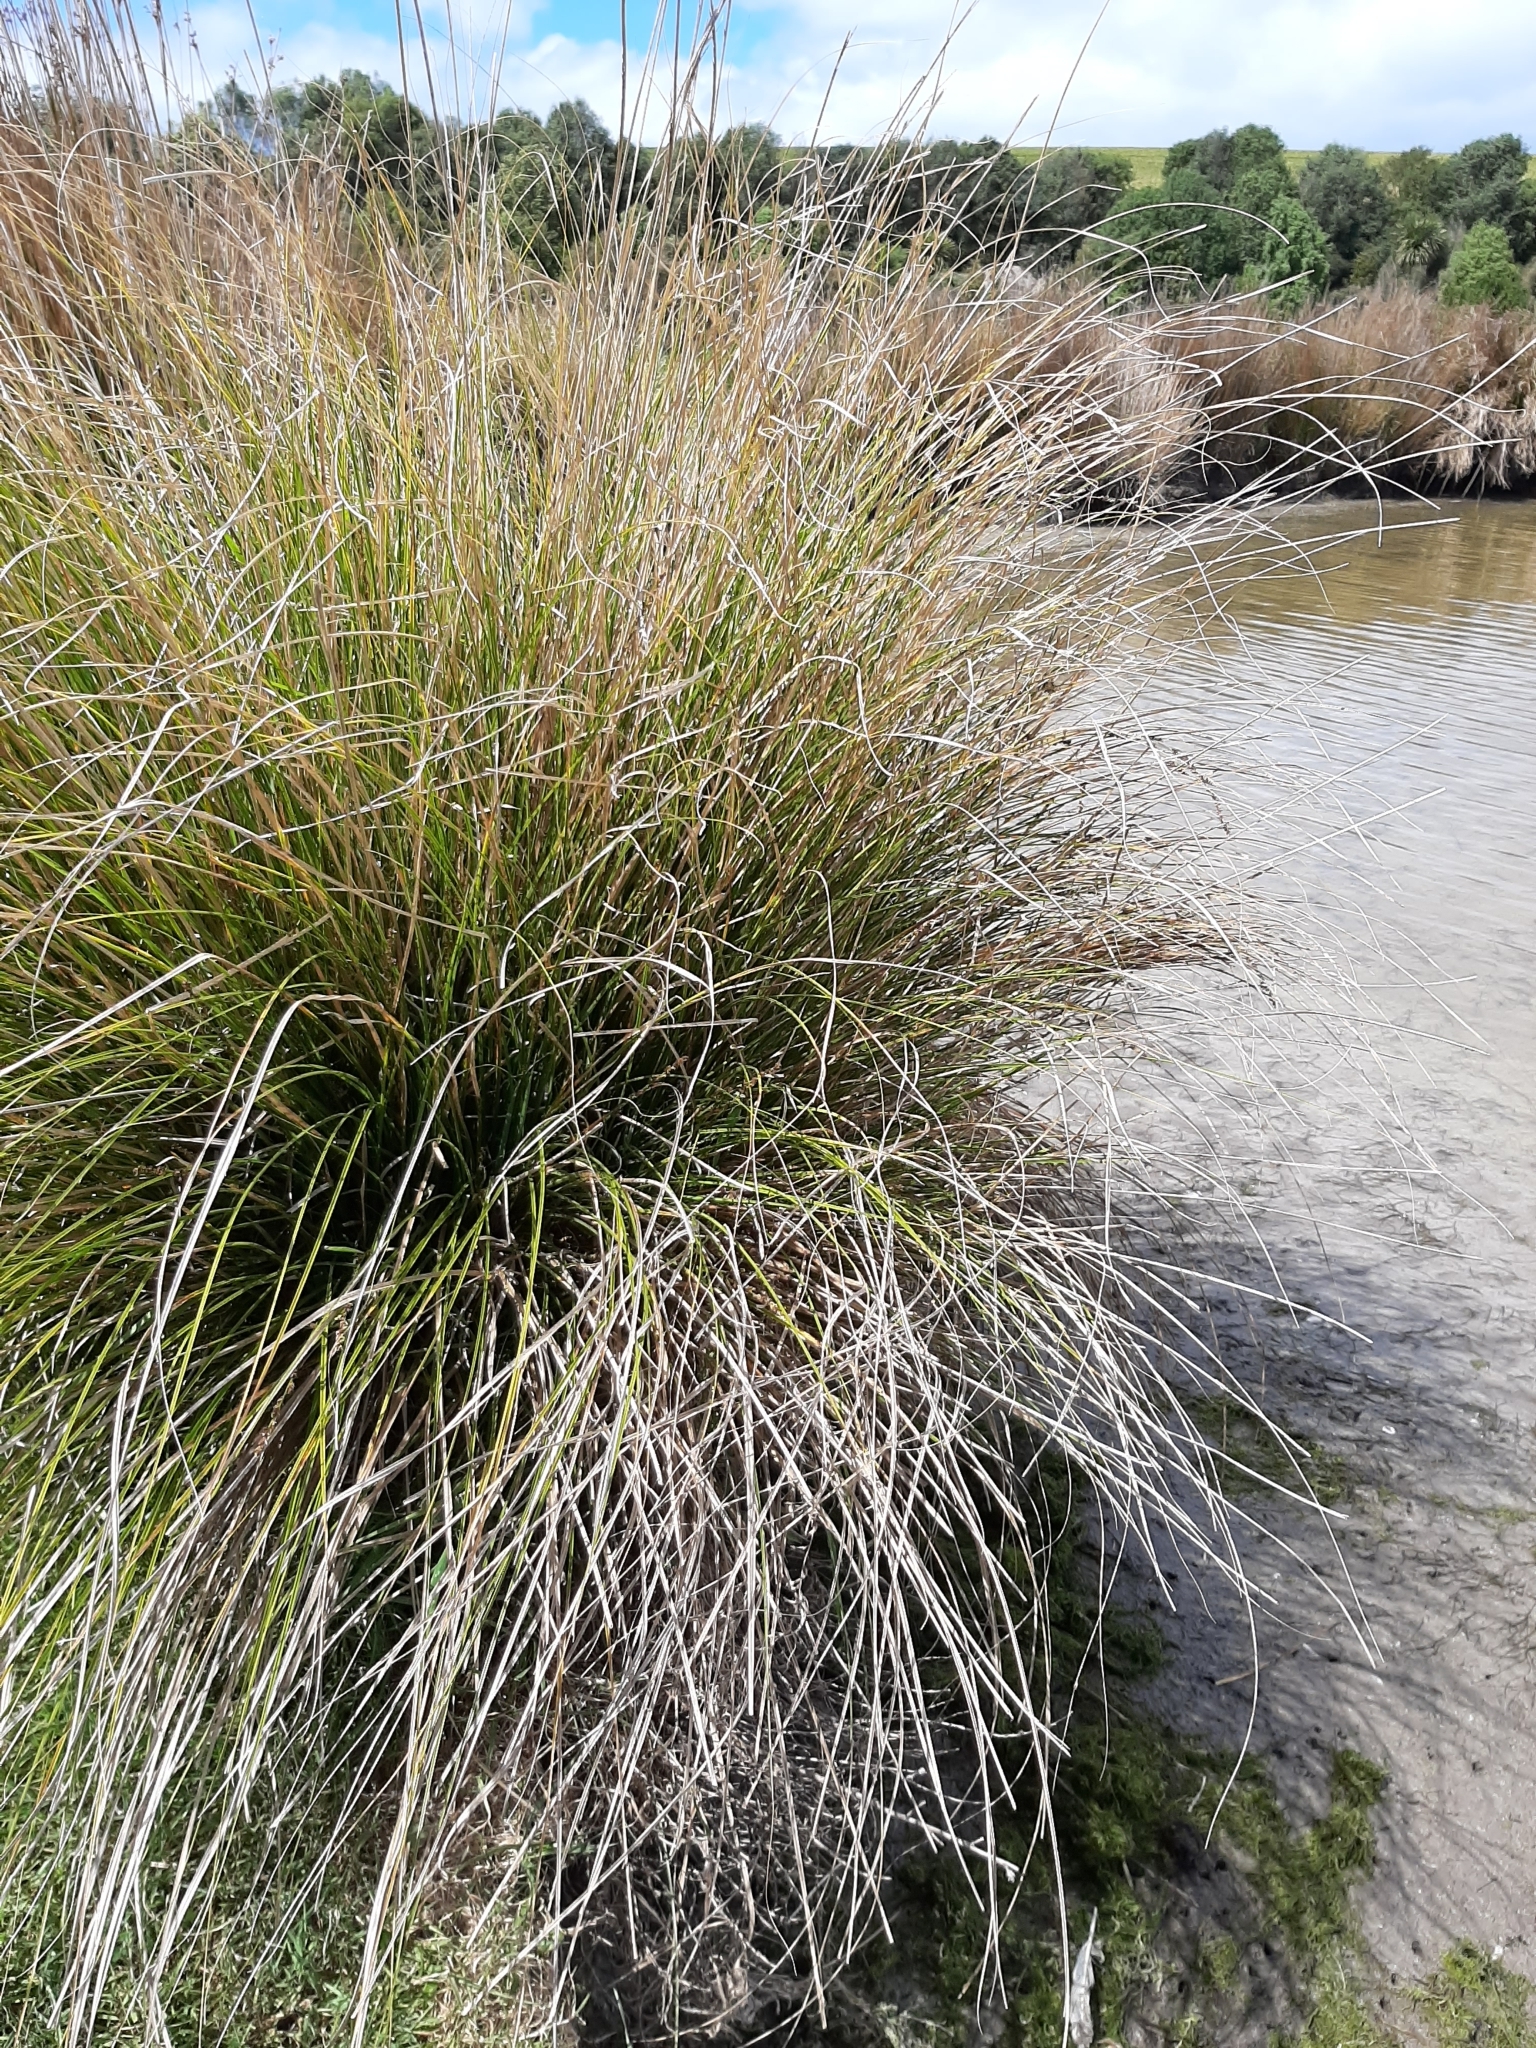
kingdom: Plantae
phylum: Tracheophyta
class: Liliopsida
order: Poales
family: Cyperaceae
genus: Carex
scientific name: Carex secta
